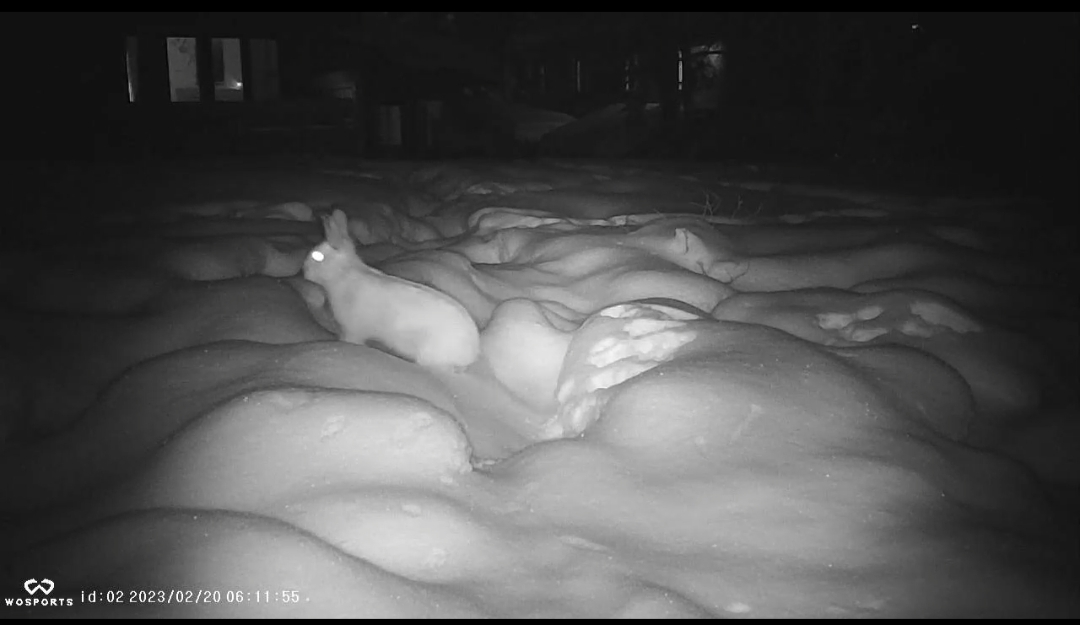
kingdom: Animalia
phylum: Chordata
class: Mammalia
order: Lagomorpha
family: Leporidae
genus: Lepus
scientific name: Lepus americanus
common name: Snowshoe hare
